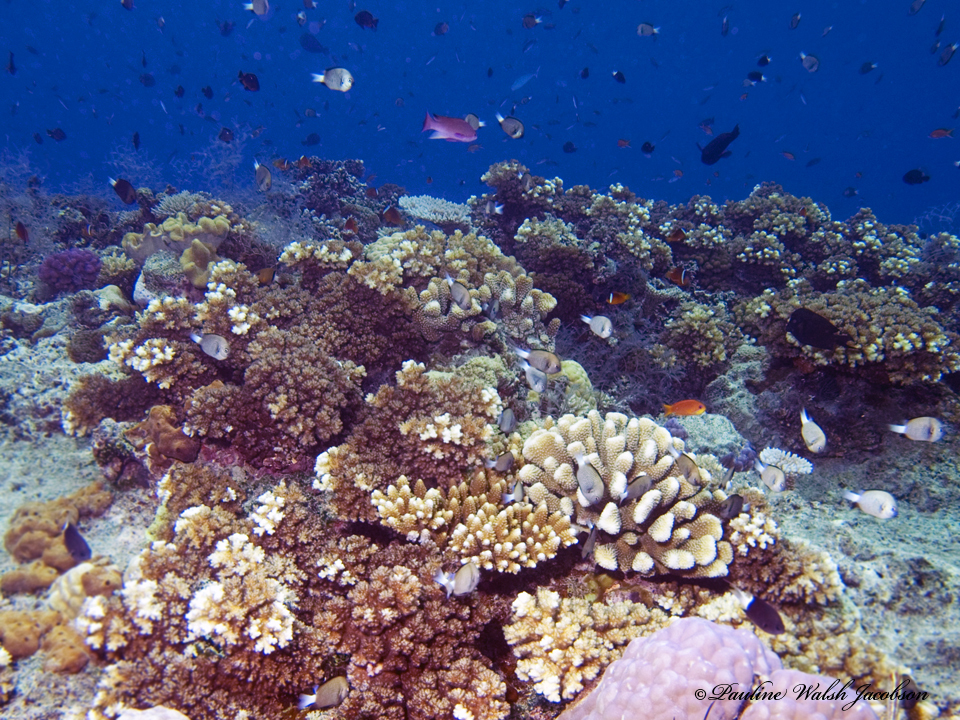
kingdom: Animalia
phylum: Chordata
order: Perciformes
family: Pomacentridae
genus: Dascyllus
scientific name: Dascyllus reticulatus
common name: Reticulated dascyllus
